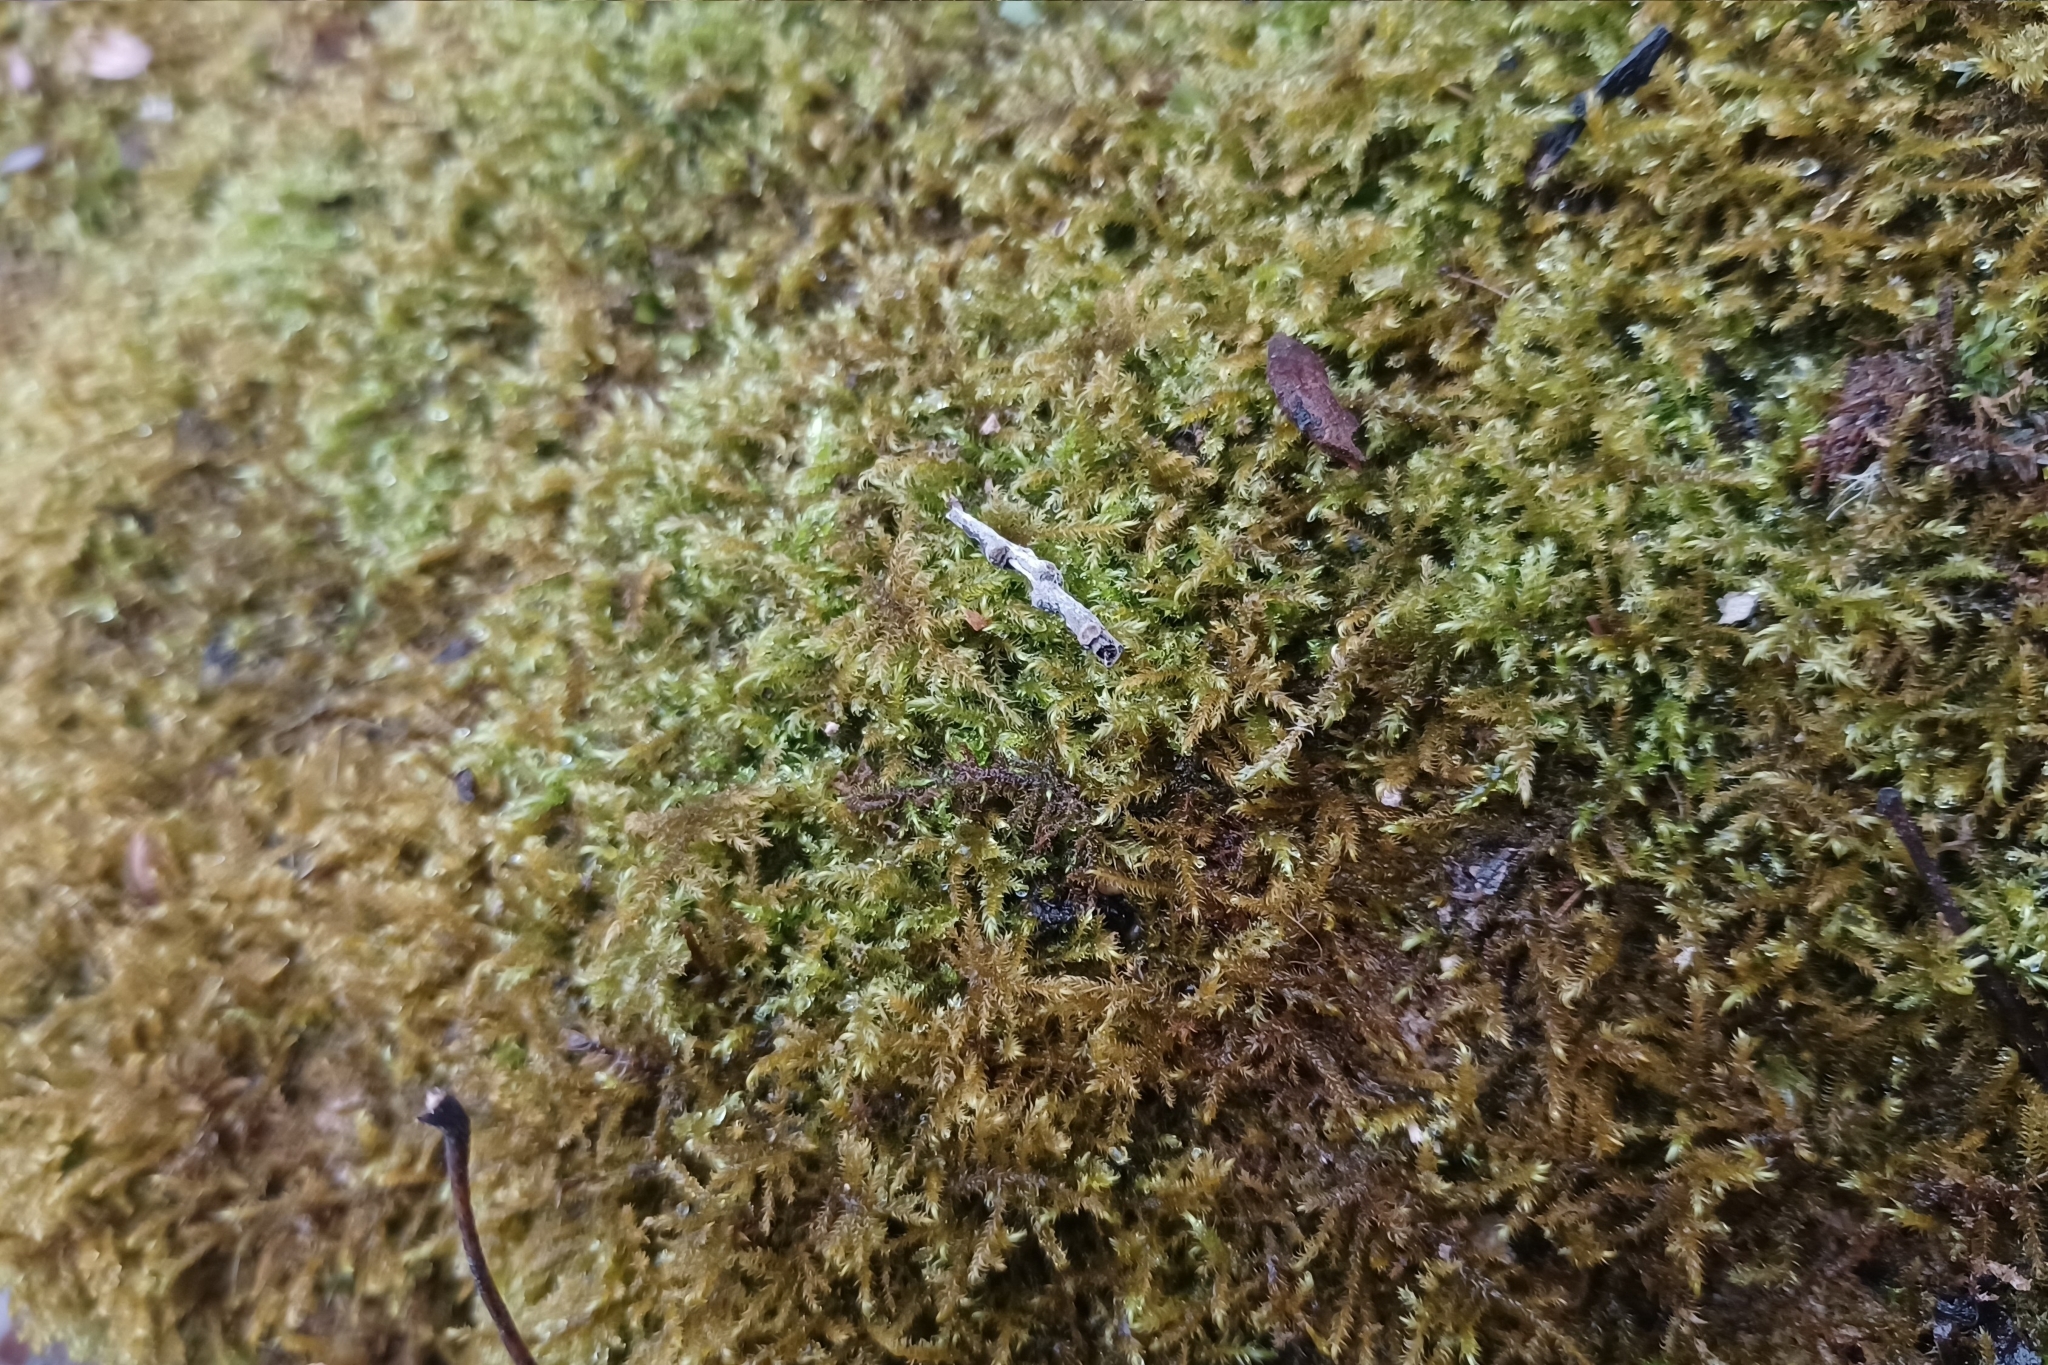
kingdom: Plantae
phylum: Bryophyta
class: Bryopsida
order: Hypnales
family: Amblystegiaceae
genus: Cratoneuron
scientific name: Cratoneuron filicinum
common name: Fern-leaved hook moss
